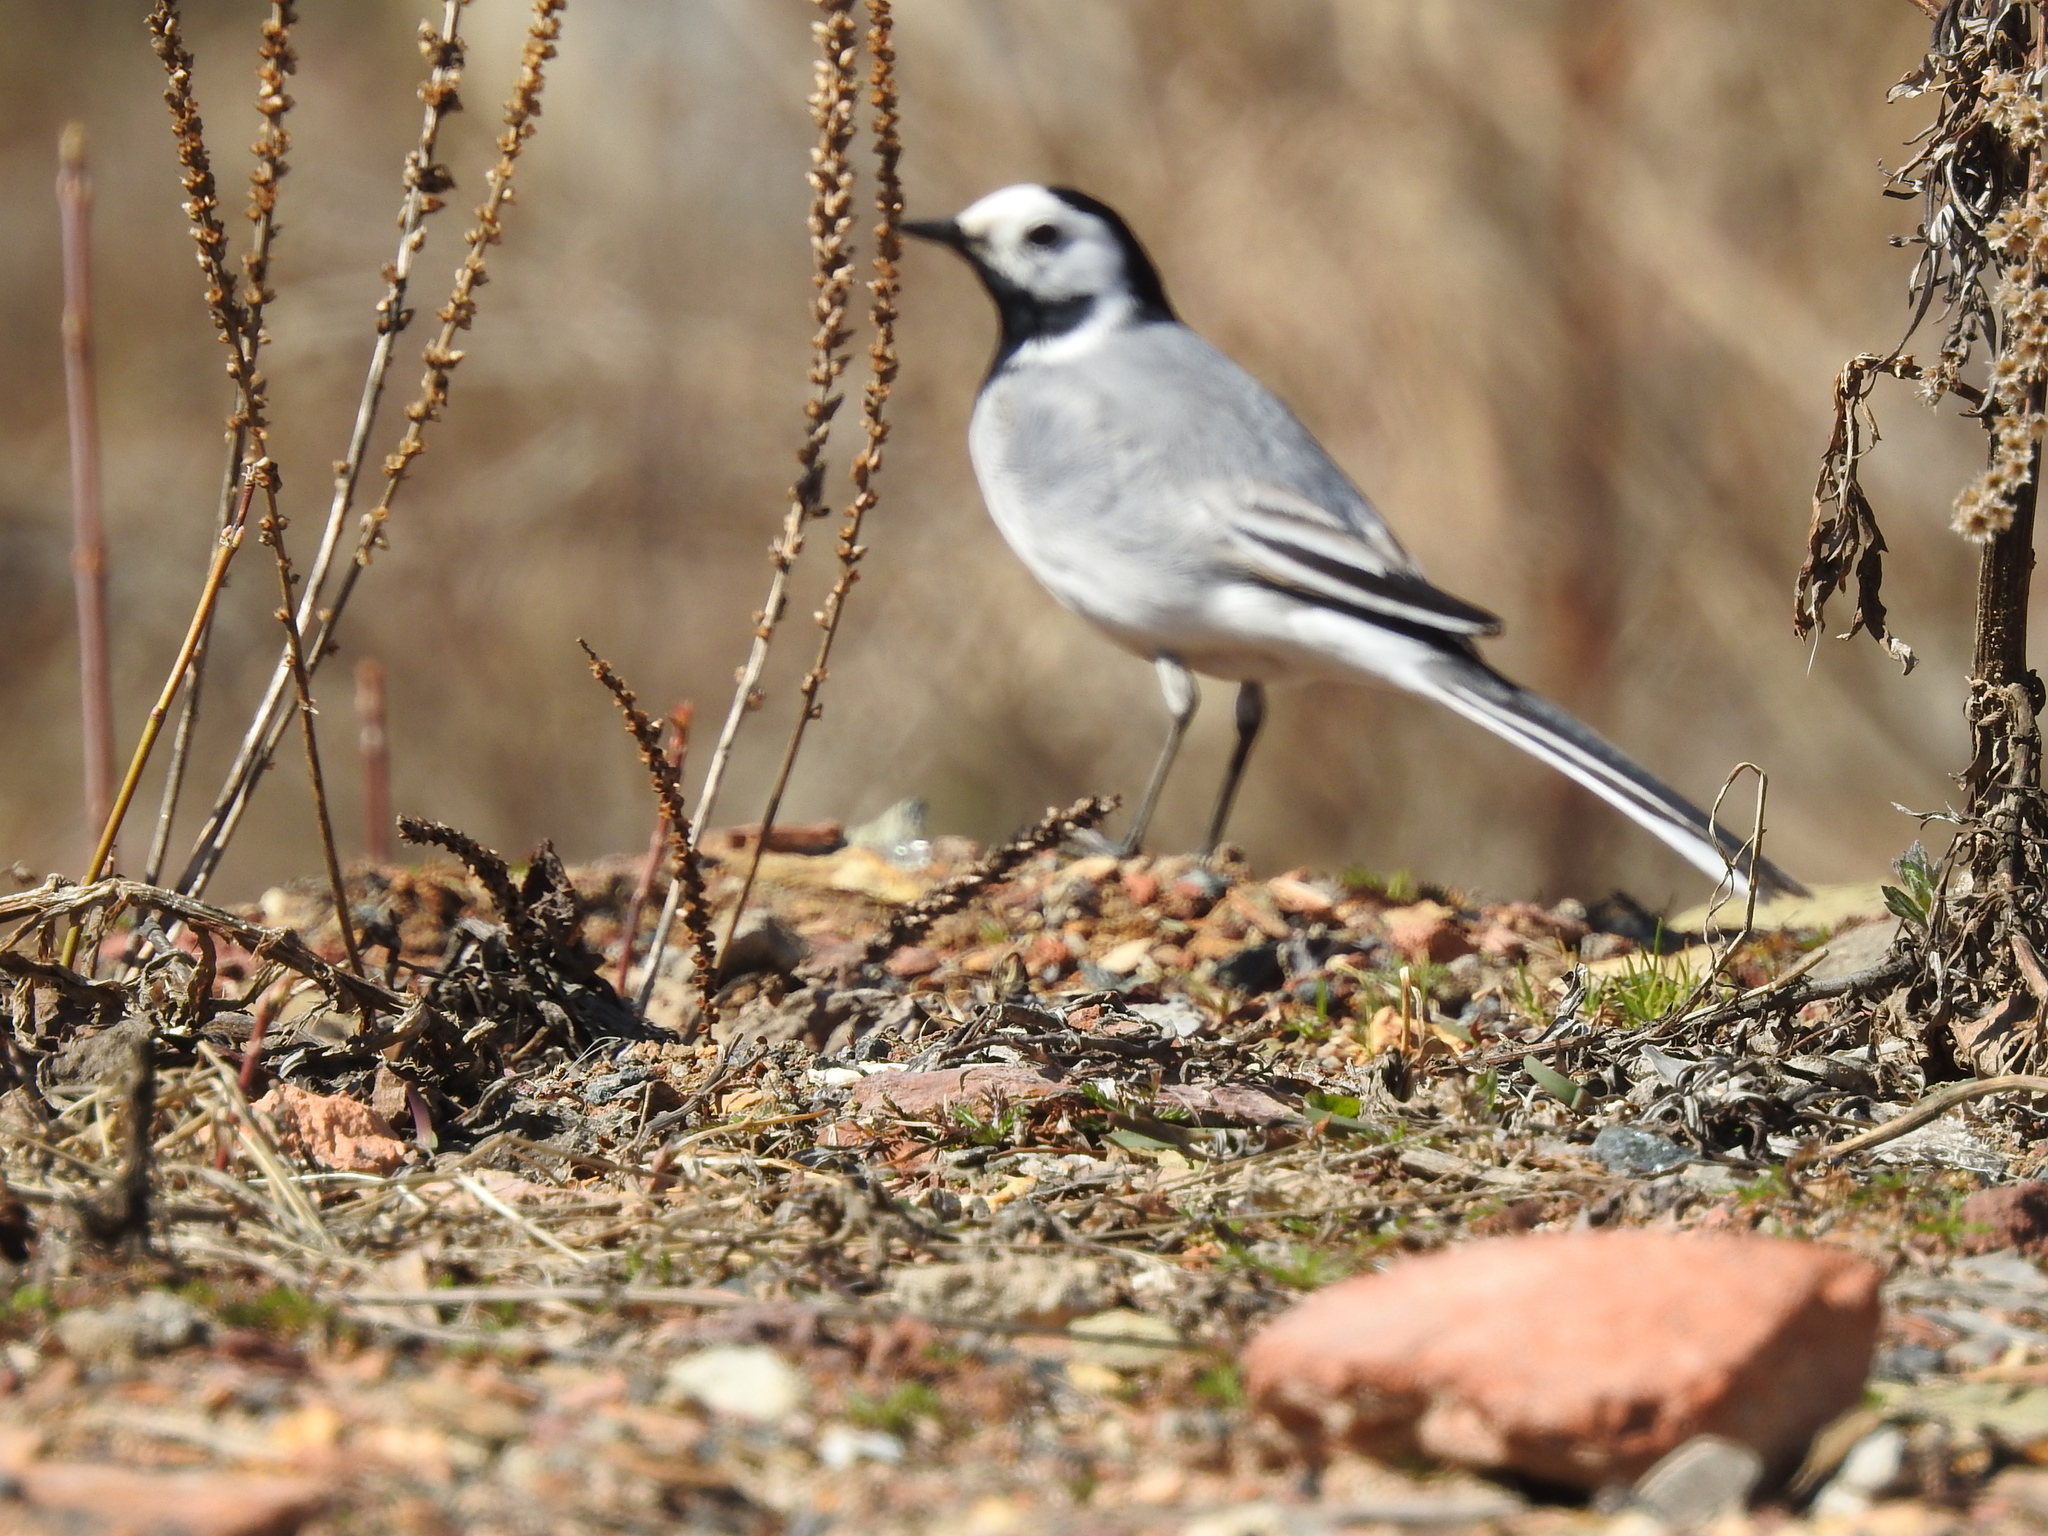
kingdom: Animalia
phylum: Chordata
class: Aves
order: Passeriformes
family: Motacillidae
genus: Motacilla
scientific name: Motacilla alba
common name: White wagtail
